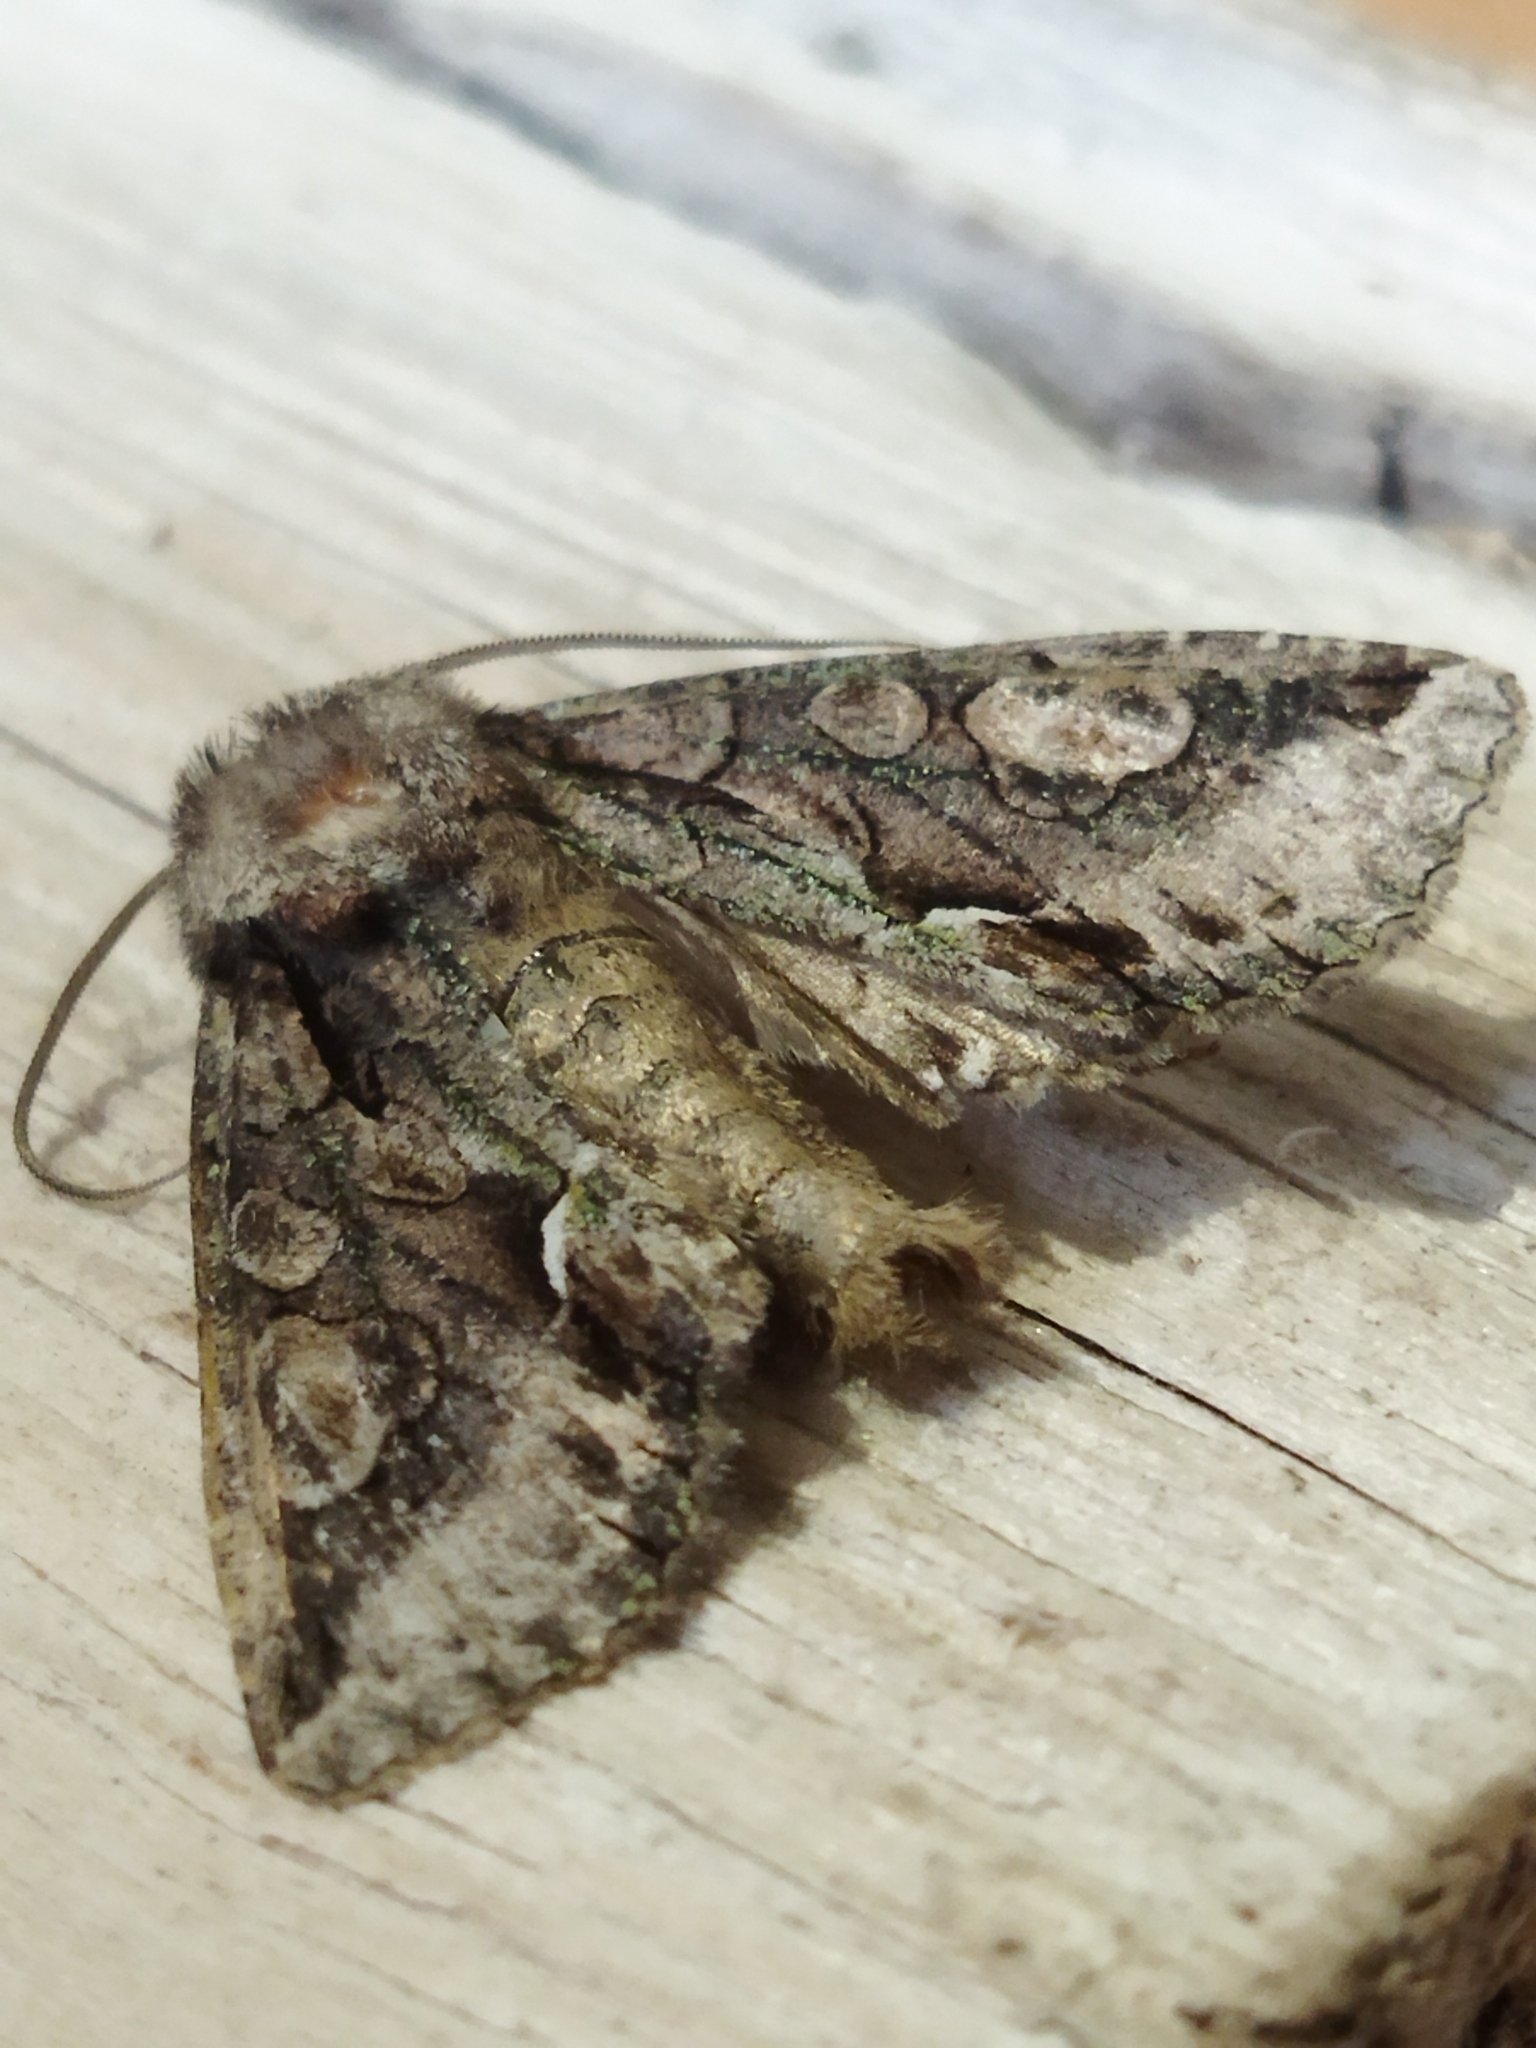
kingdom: Animalia
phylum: Arthropoda
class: Insecta
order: Lepidoptera
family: Noctuidae
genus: Allophyes
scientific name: Allophyes oxyacanthae
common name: Green-brindled crescent
